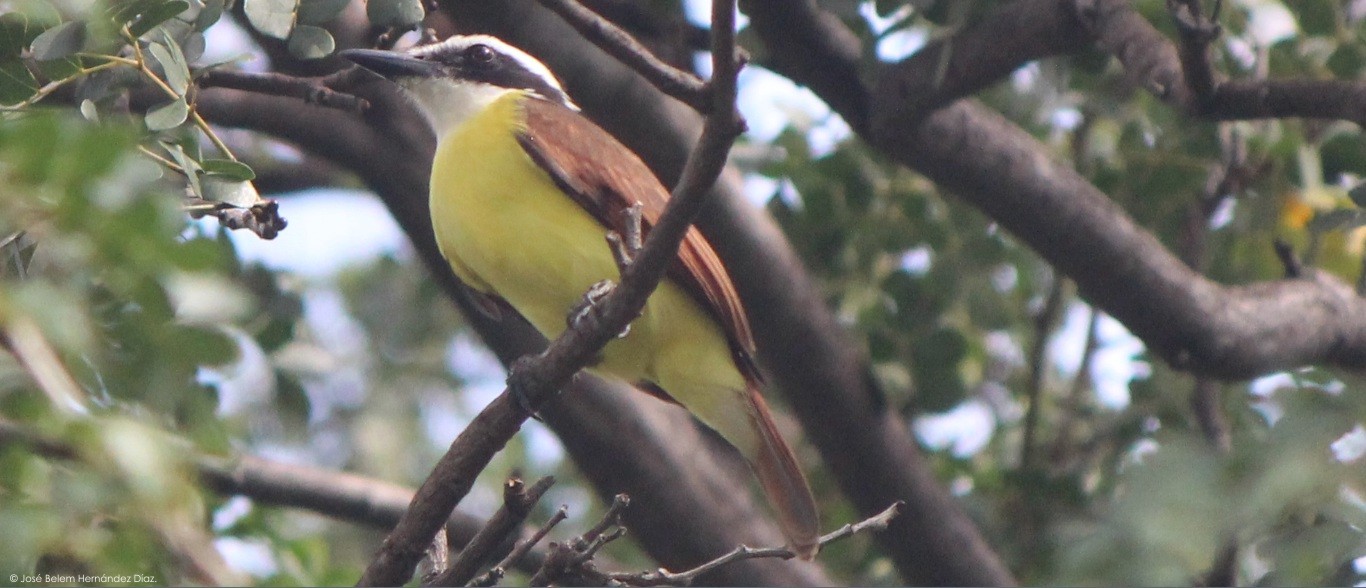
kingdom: Animalia
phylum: Chordata
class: Aves
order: Passeriformes
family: Tyrannidae
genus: Pitangus
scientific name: Pitangus sulphuratus
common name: Great kiskadee
